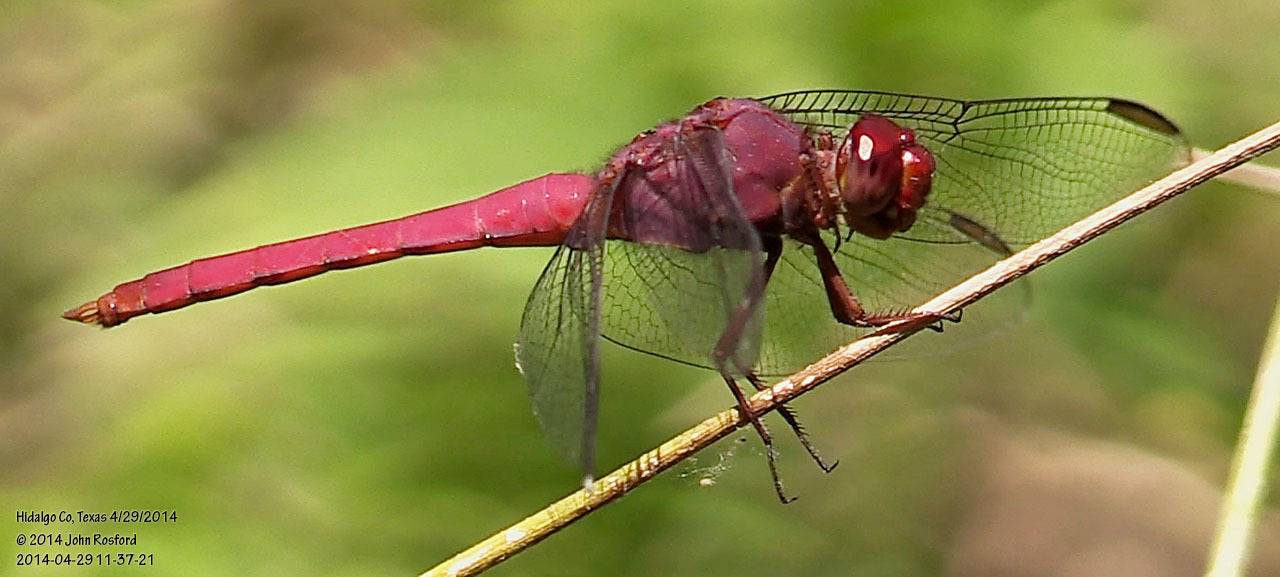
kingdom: Animalia
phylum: Arthropoda
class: Insecta
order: Odonata
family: Libellulidae
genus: Orthemis
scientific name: Orthemis discolor
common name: Carmine skimmer
